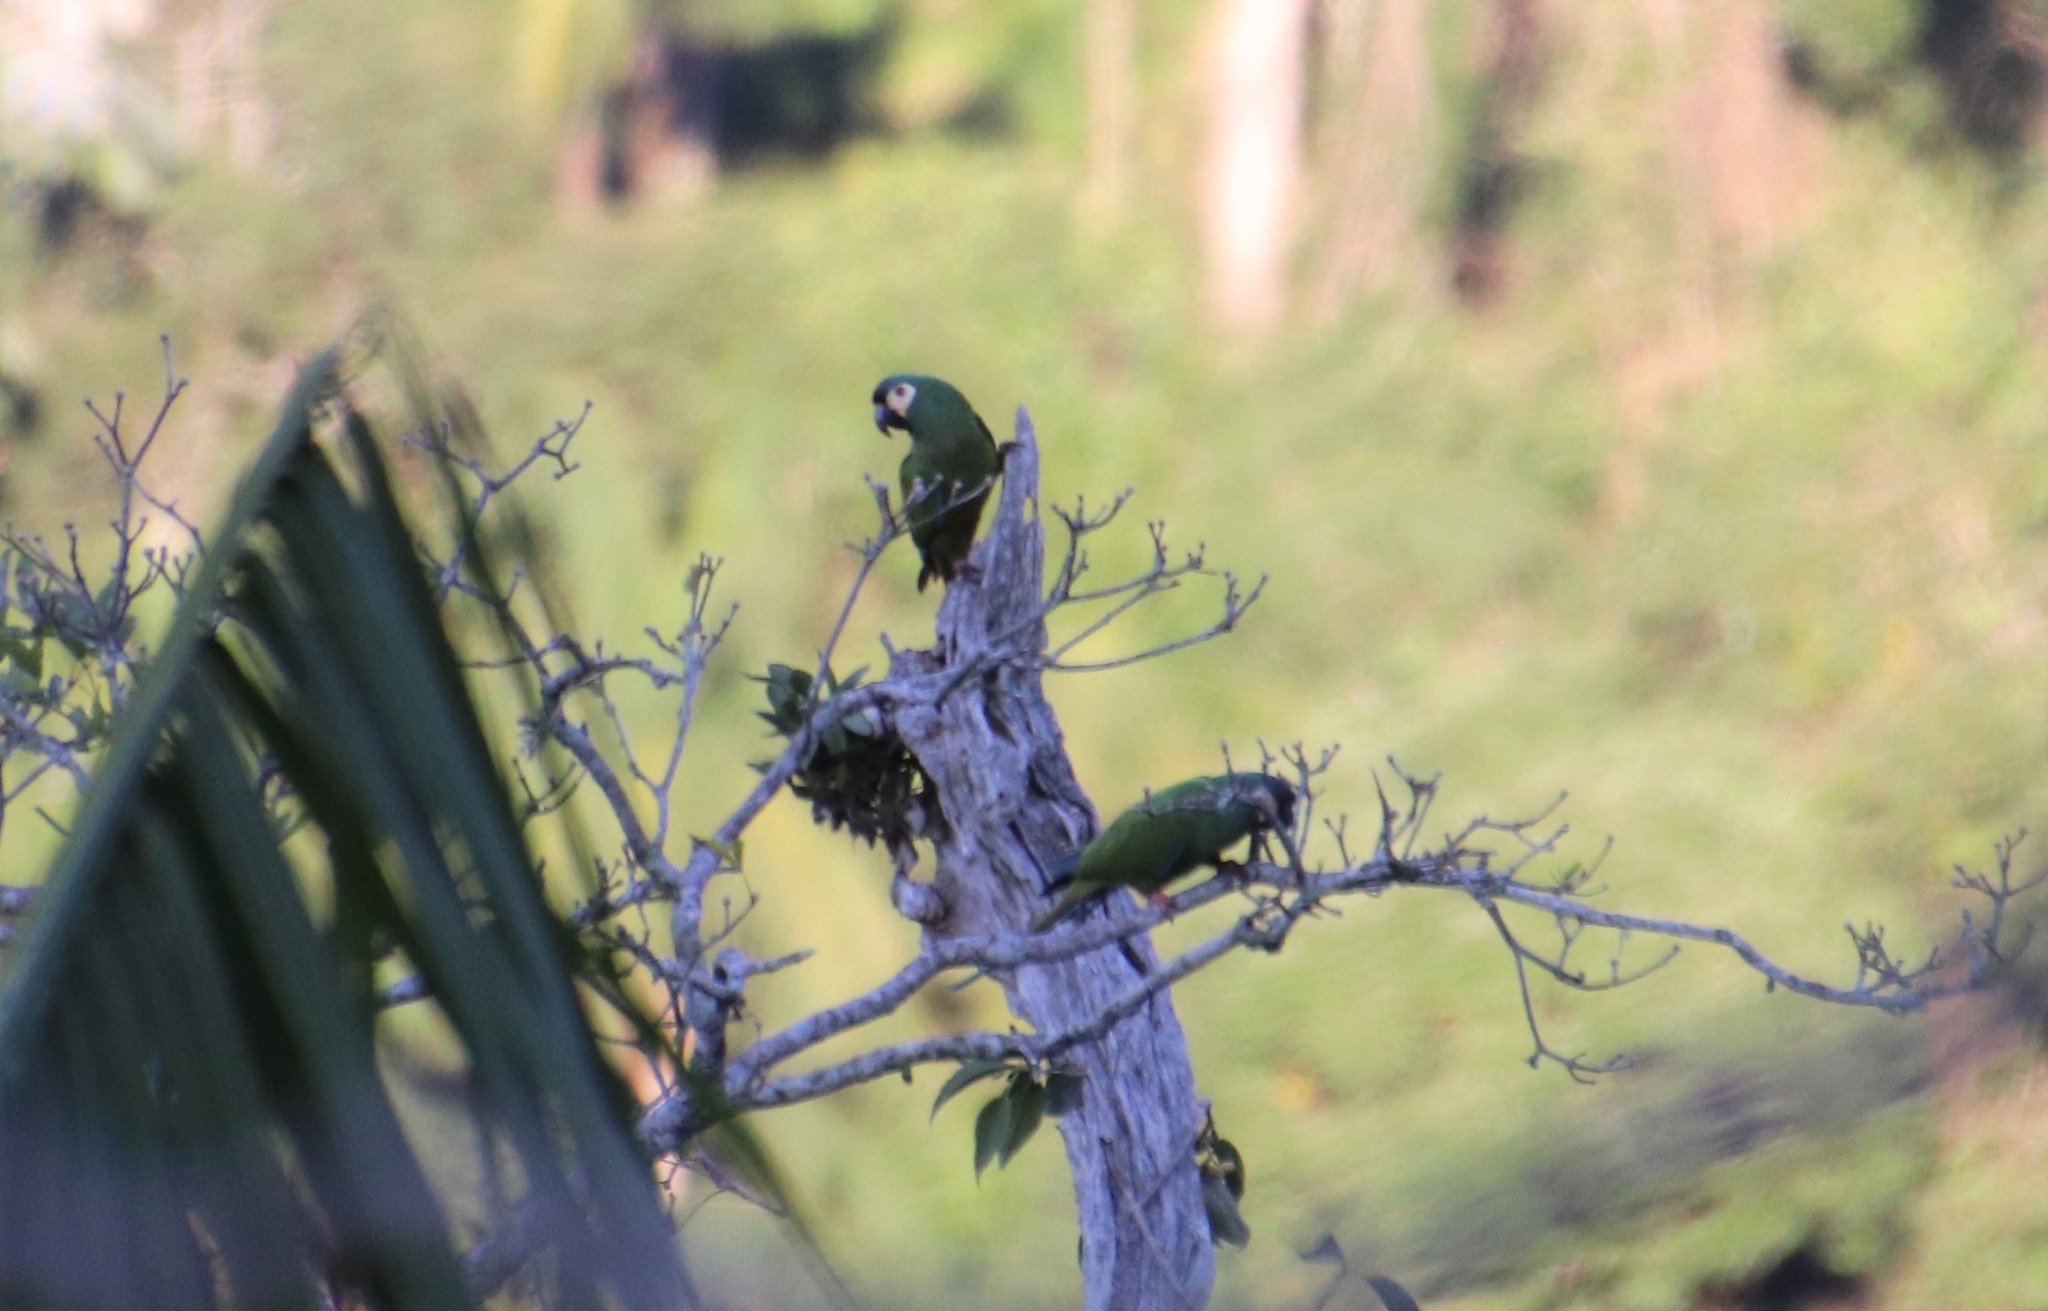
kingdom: Animalia
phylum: Chordata
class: Aves
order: Psittaciformes
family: Psittacidae
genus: Primolius
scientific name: Primolius maracana
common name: Blue-winged macaw
